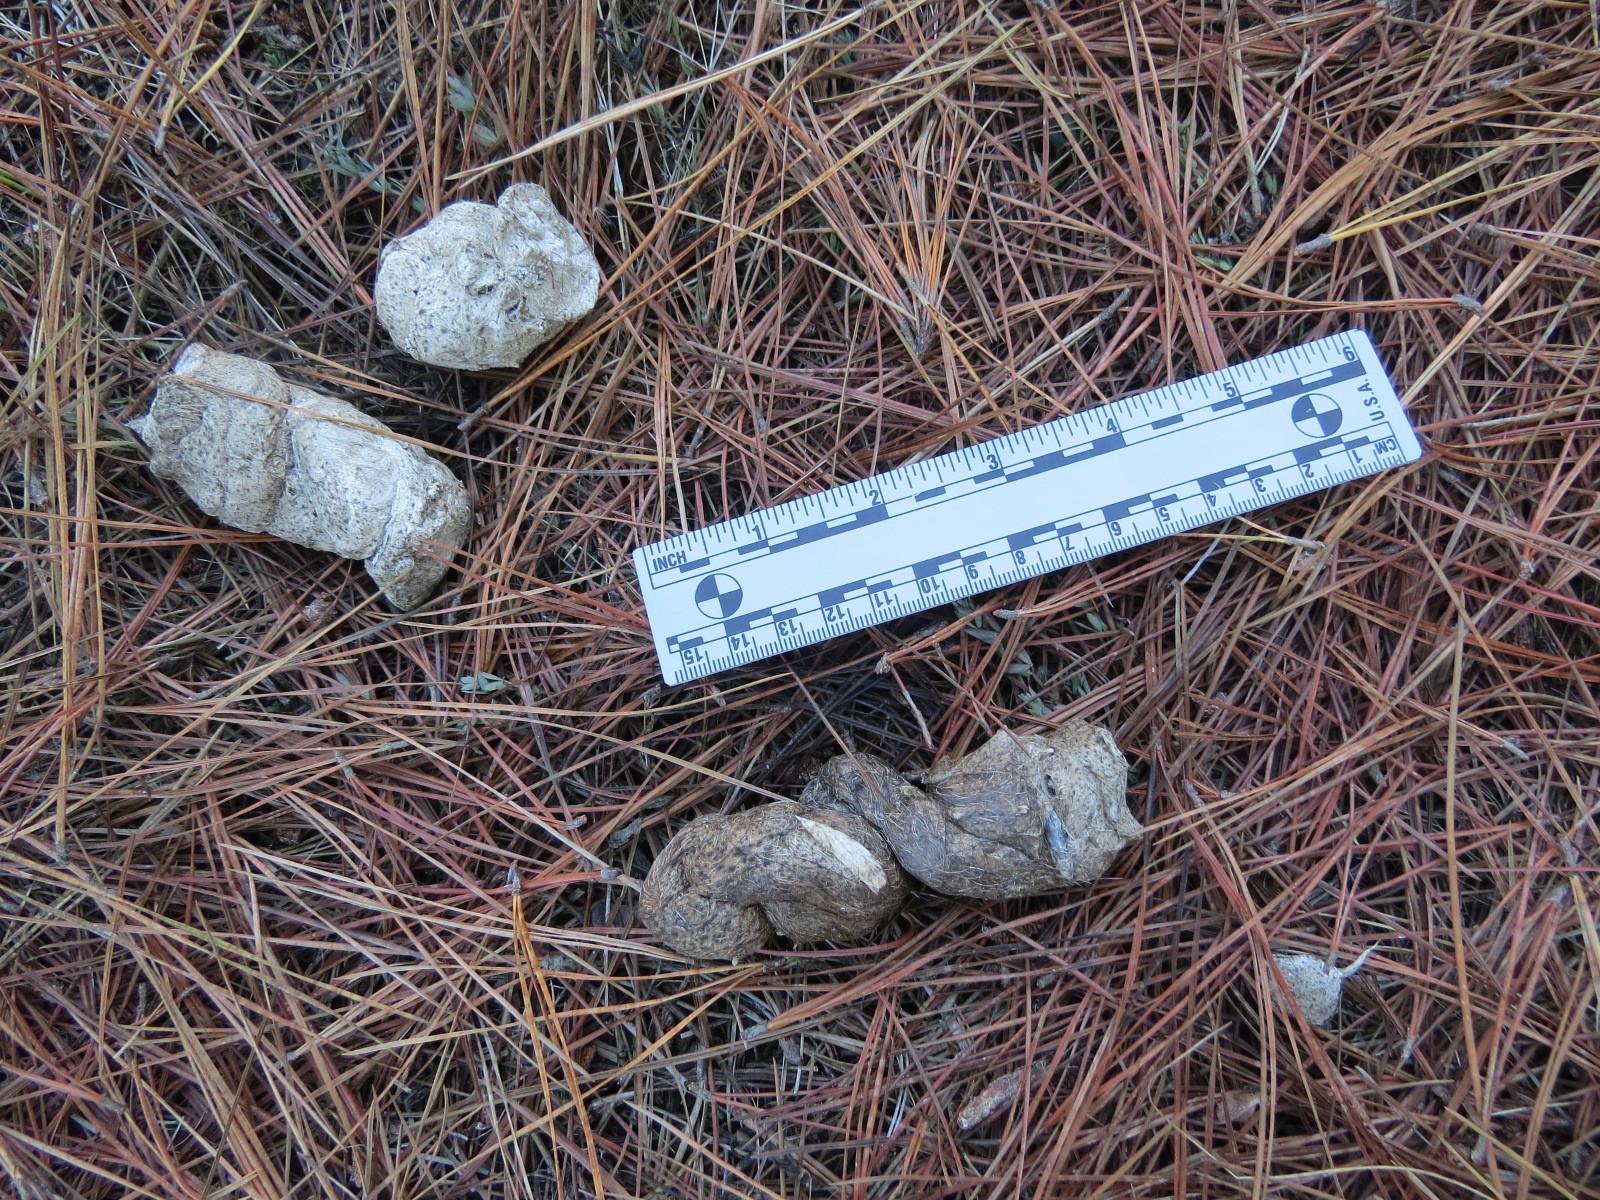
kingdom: Animalia
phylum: Chordata
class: Mammalia
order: Carnivora
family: Felidae
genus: Puma
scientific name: Puma concolor
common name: Puma
